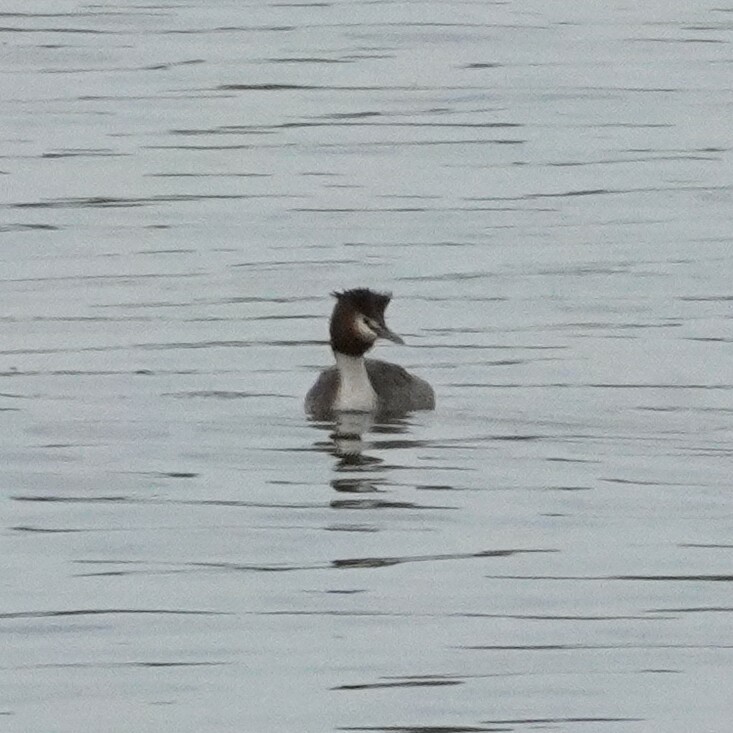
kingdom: Animalia
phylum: Chordata
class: Aves
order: Podicipediformes
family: Podicipedidae
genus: Podiceps
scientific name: Podiceps cristatus
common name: Great crested grebe
